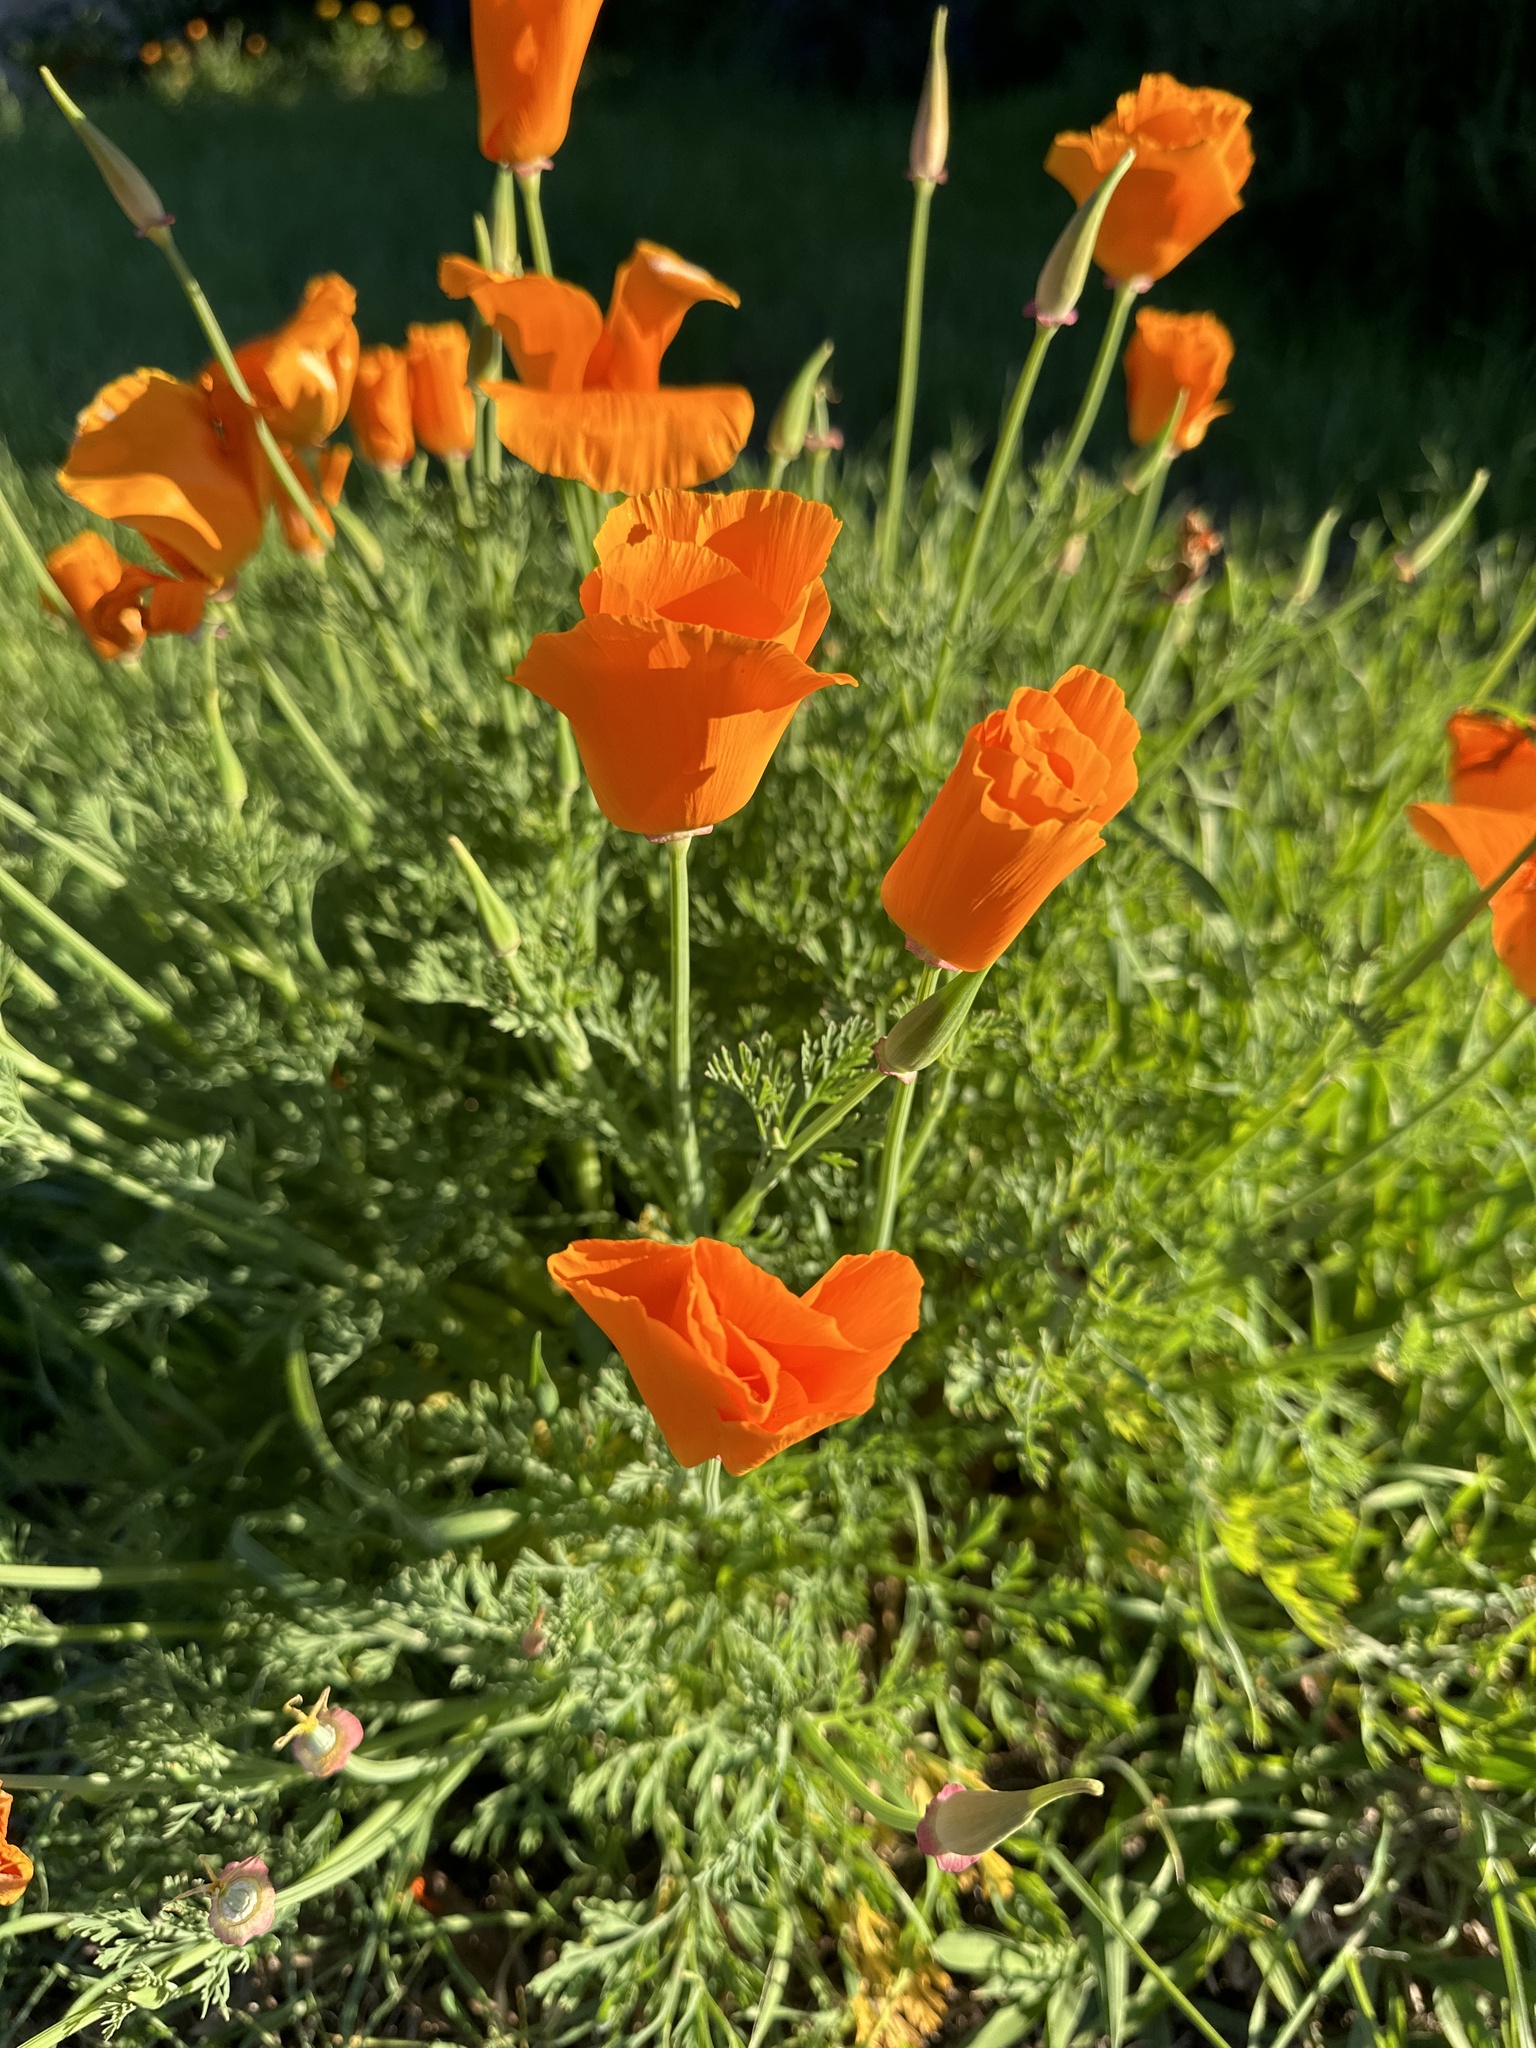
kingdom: Plantae
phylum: Tracheophyta
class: Magnoliopsida
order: Ranunculales
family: Papaveraceae
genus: Eschscholzia
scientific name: Eschscholzia californica
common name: California poppy
